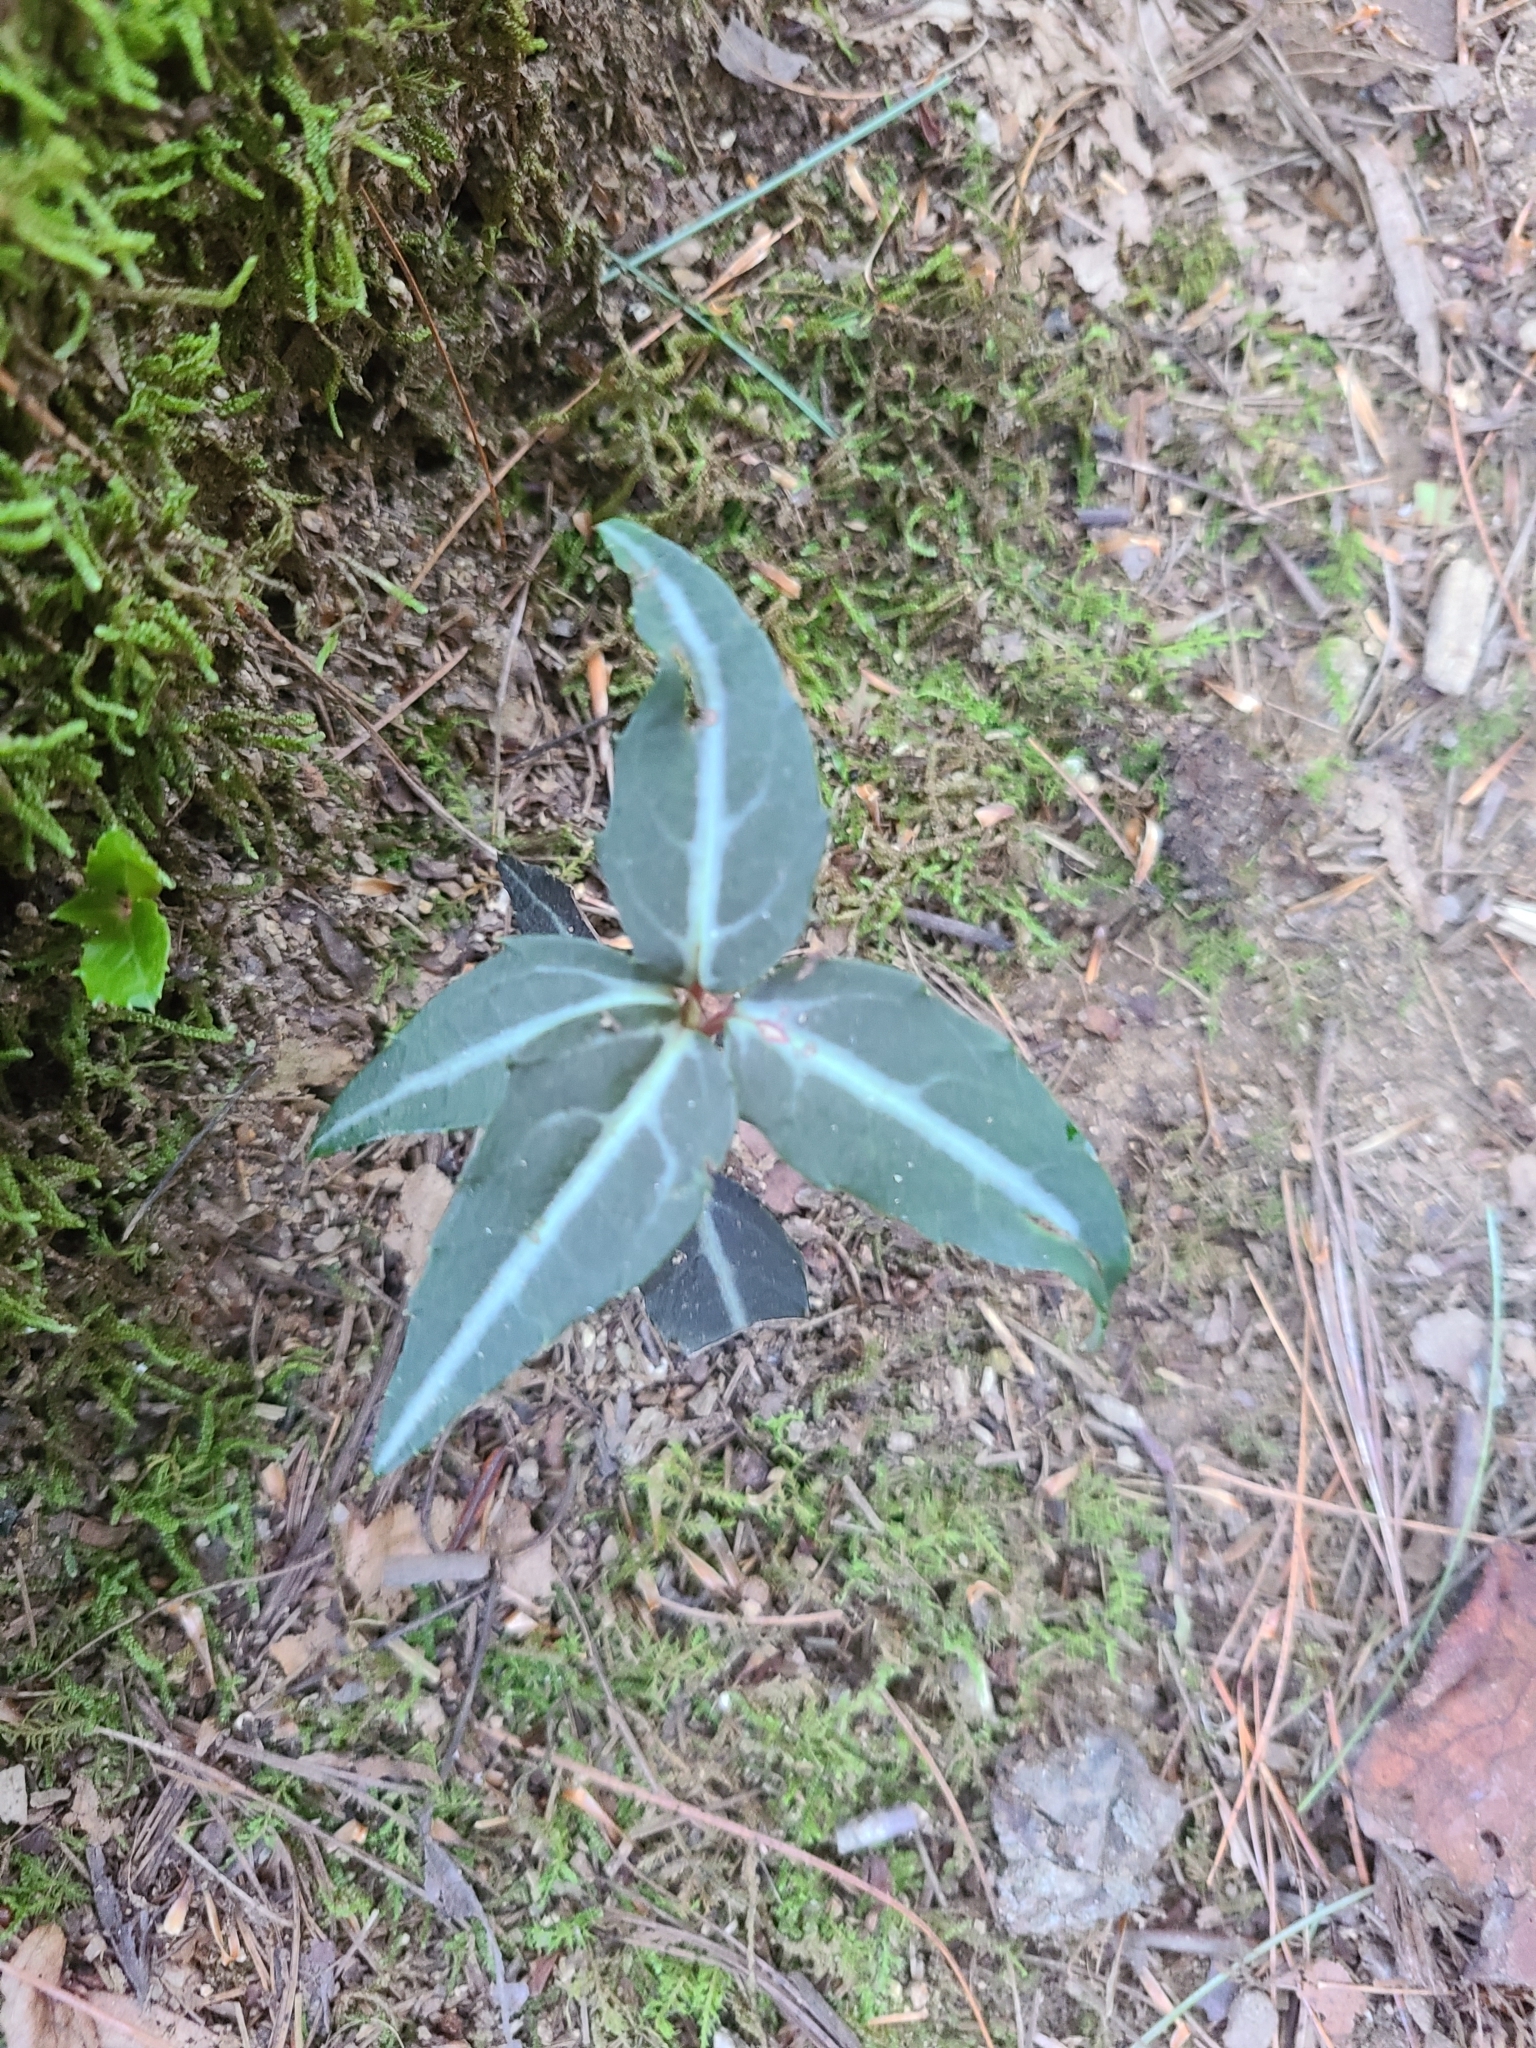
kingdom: Plantae
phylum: Tracheophyta
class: Magnoliopsida
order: Ericales
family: Ericaceae
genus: Chimaphila
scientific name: Chimaphila maculata
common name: Spotted pipsissewa
